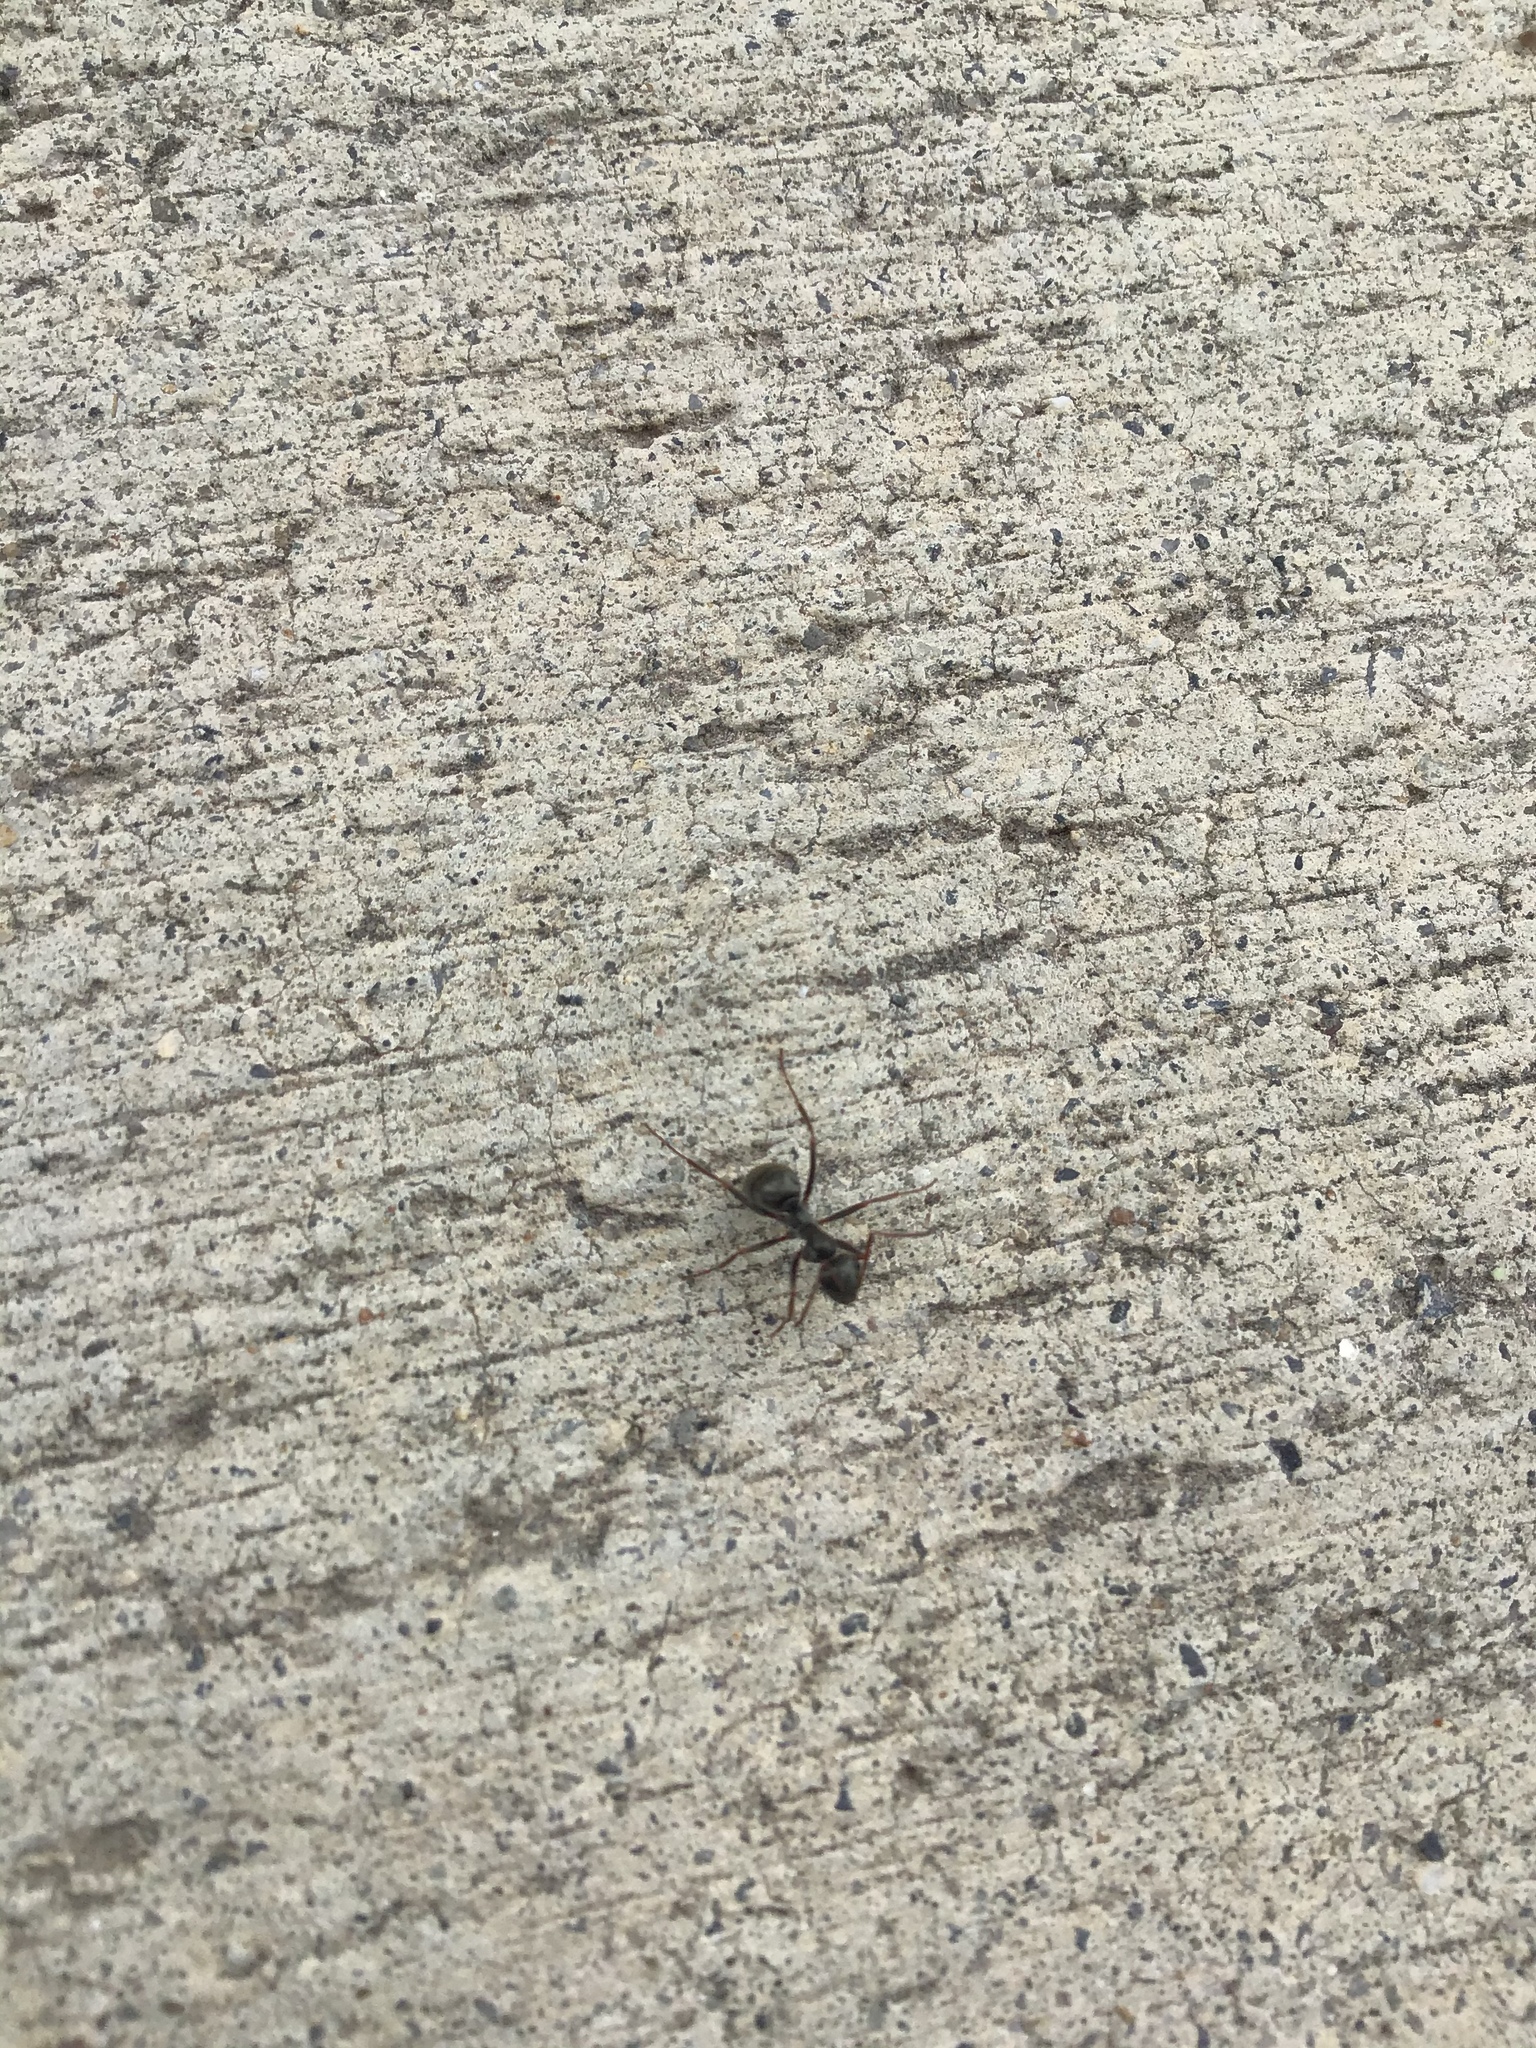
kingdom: Animalia
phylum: Arthropoda
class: Insecta
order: Hymenoptera
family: Formicidae
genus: Formica
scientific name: Formica argentea
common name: Silvery field ant
